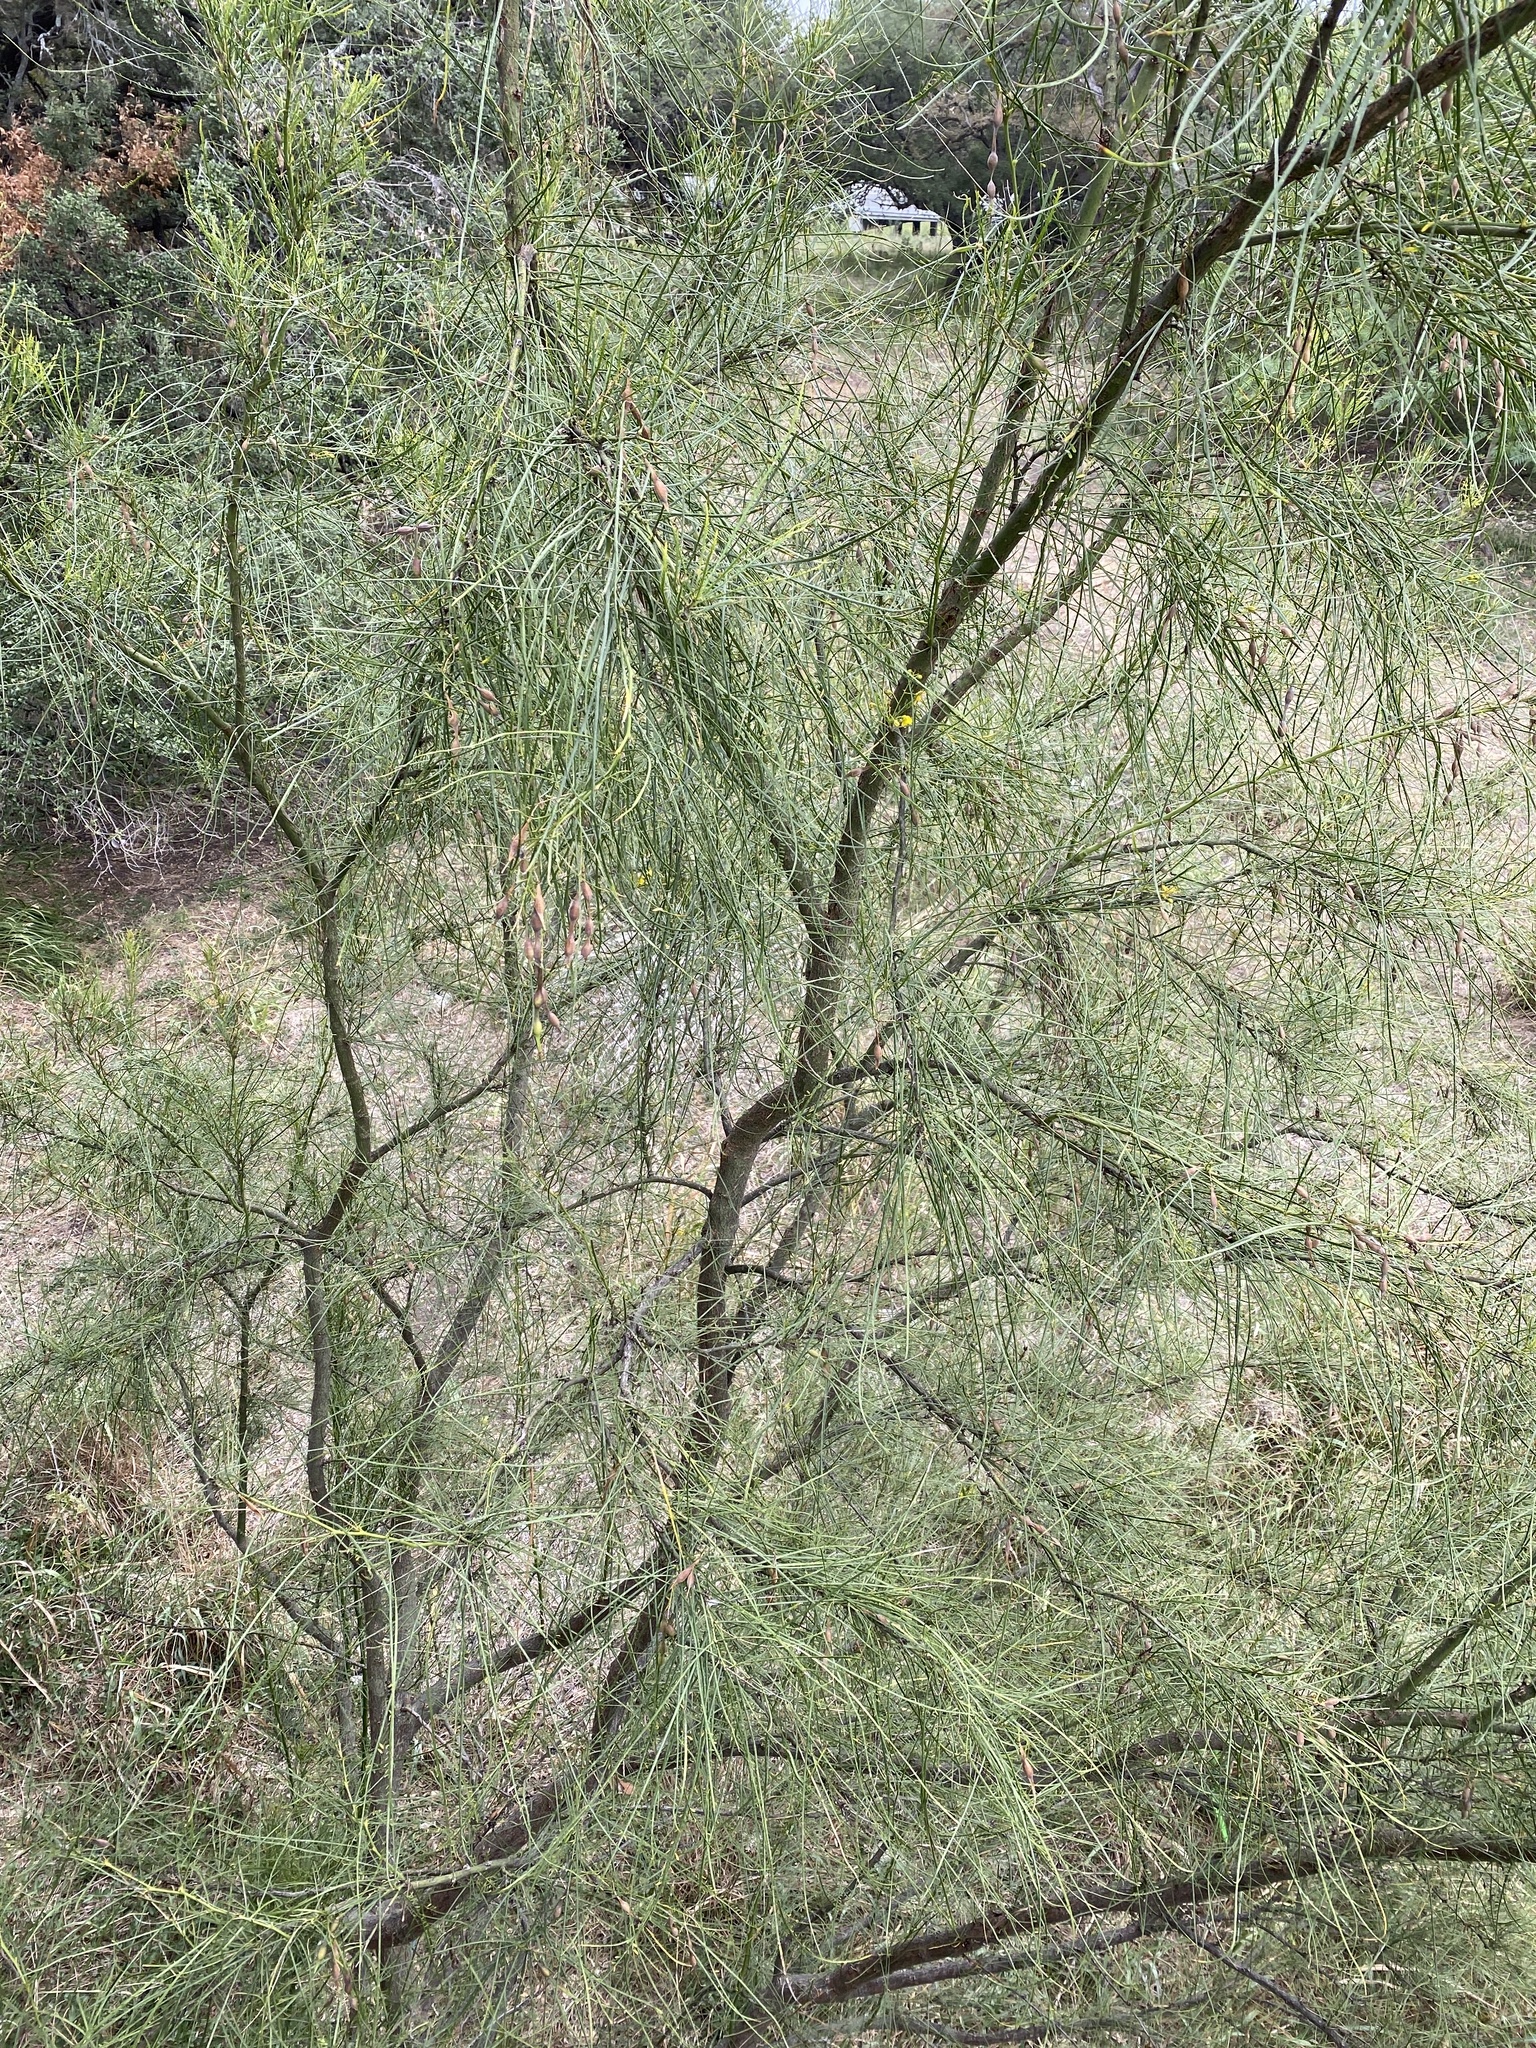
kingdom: Plantae
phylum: Tracheophyta
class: Magnoliopsida
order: Fabales
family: Fabaceae
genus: Parkinsonia
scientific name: Parkinsonia aculeata
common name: Jerusalem thorn
